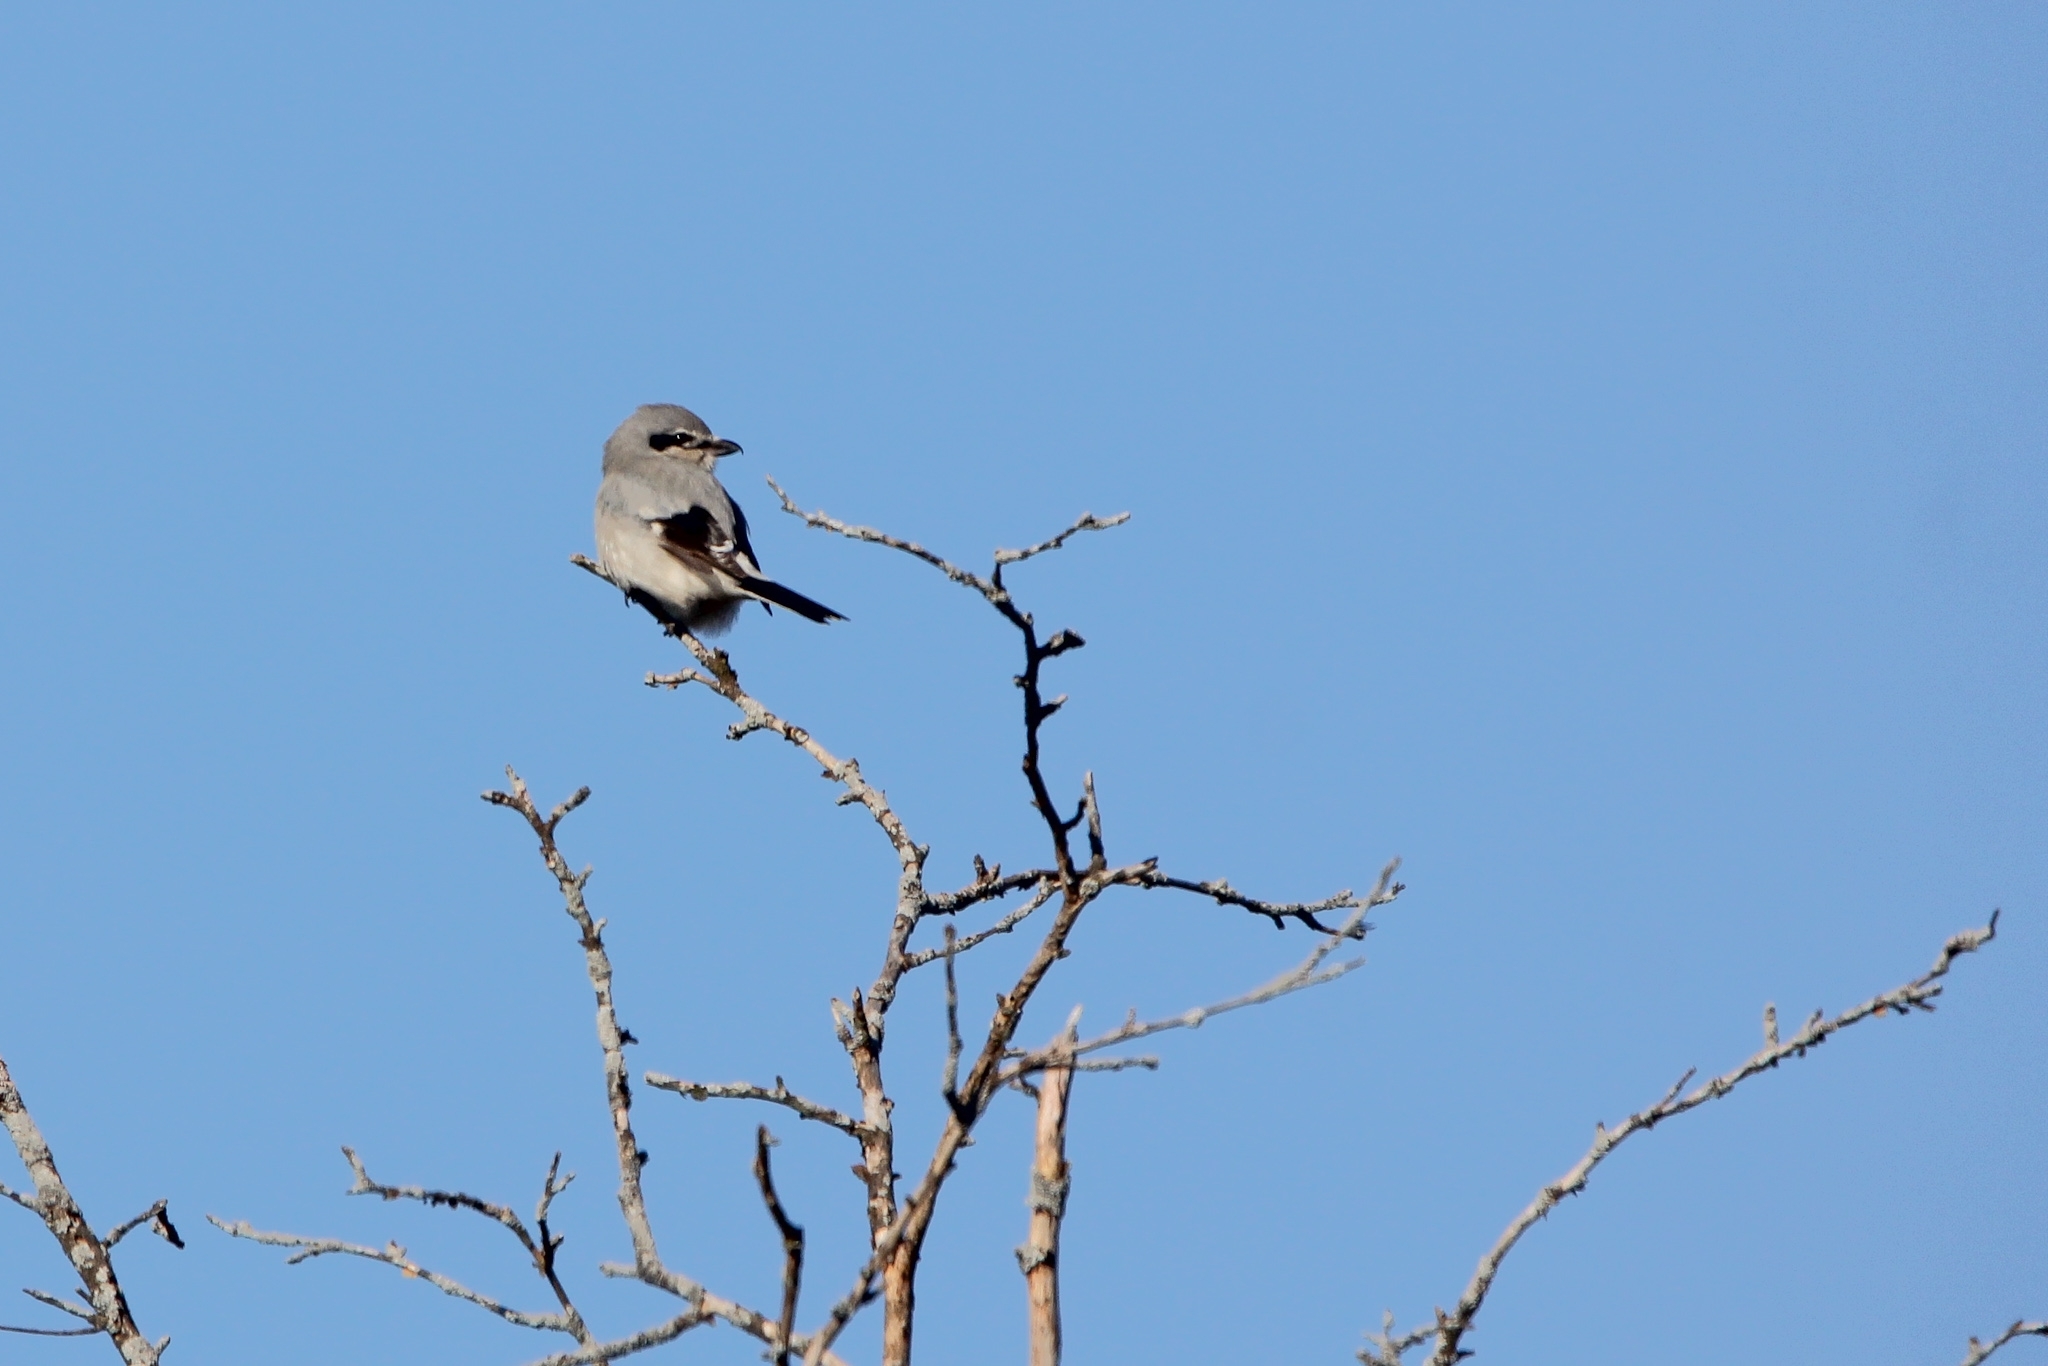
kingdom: Animalia
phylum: Chordata
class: Aves
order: Passeriformes
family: Laniidae
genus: Lanius
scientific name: Lanius borealis
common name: Northern shrike
